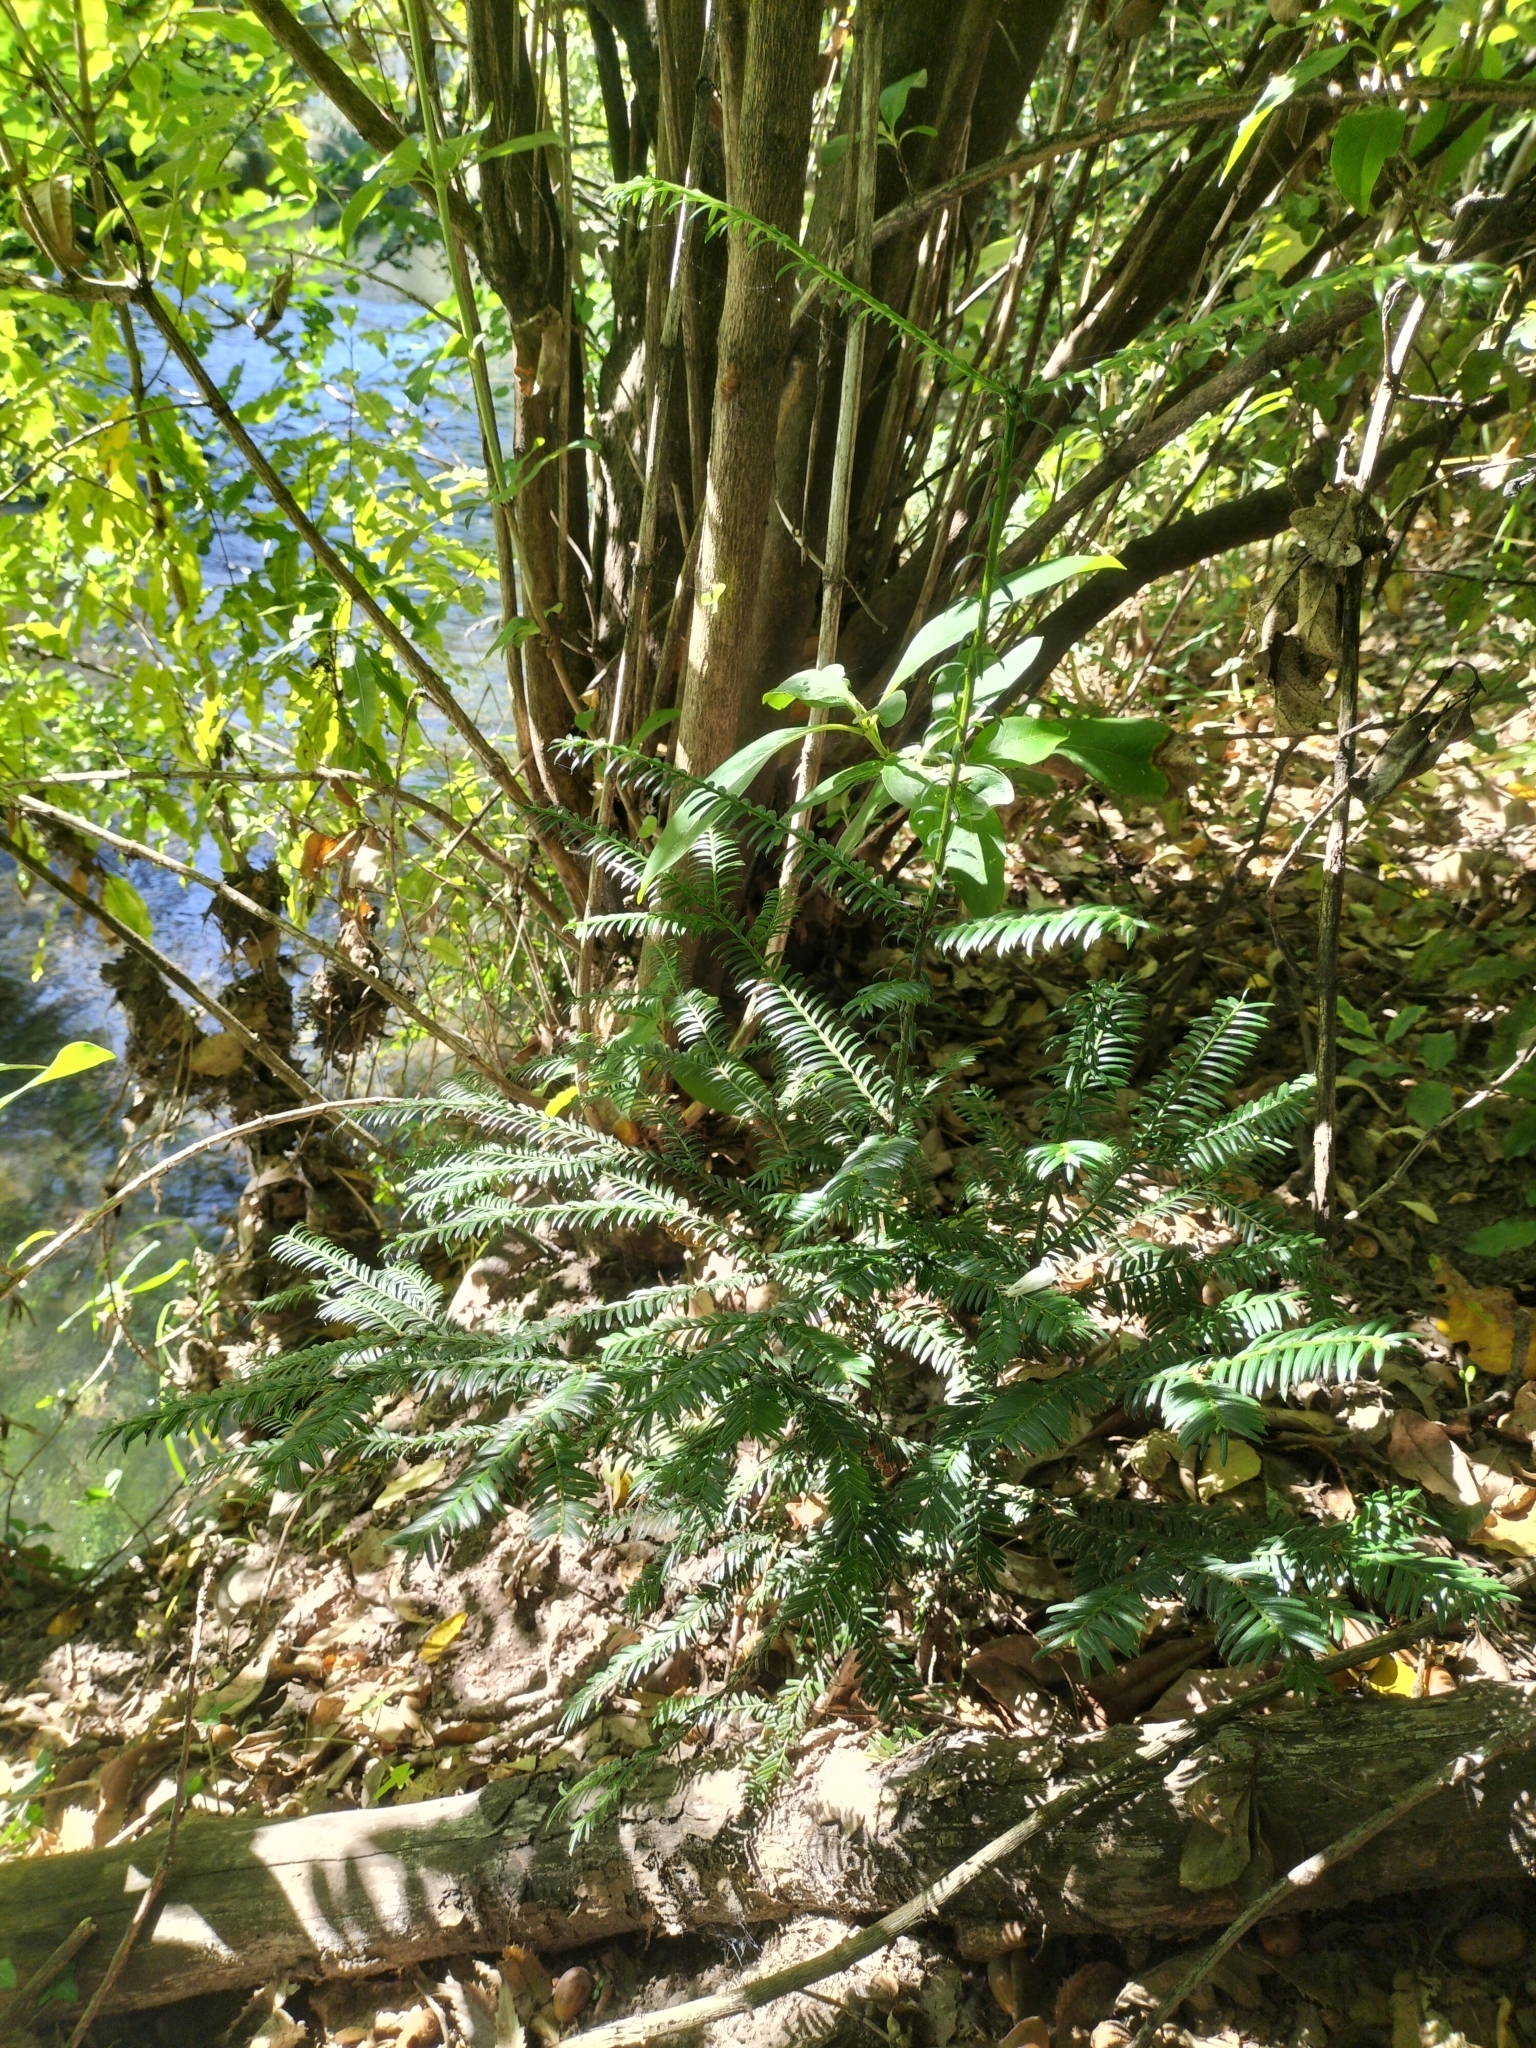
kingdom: Plantae
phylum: Tracheophyta
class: Pinopsida
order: Pinales
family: Taxaceae
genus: Taxus
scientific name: Taxus baccata
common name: Yew
